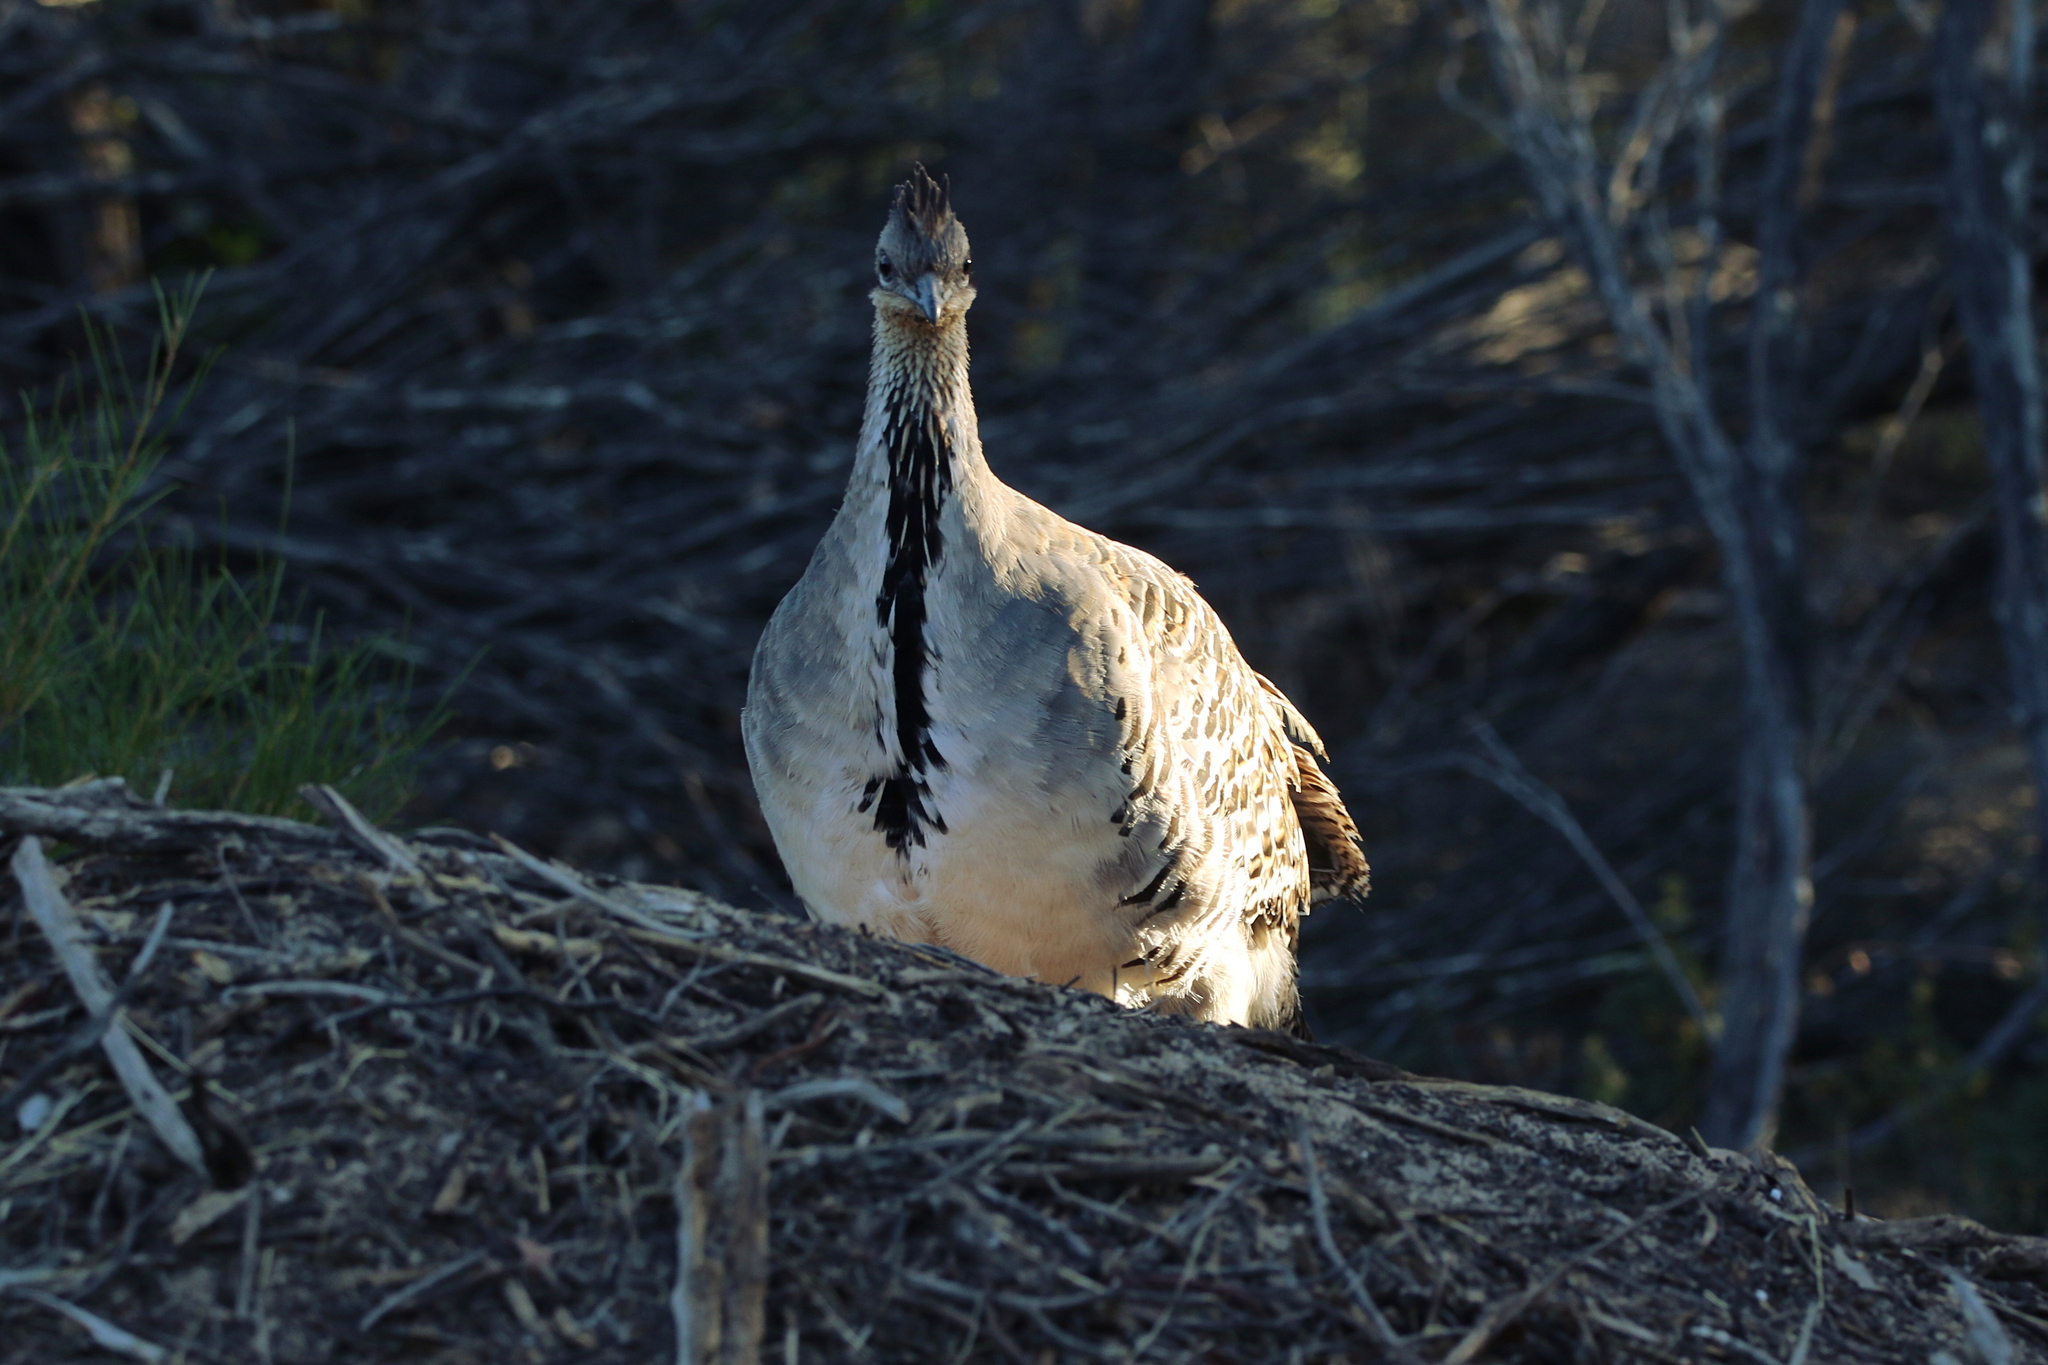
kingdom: Animalia
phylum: Chordata
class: Aves
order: Galliformes
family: Megapodiidae
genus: Leipoa
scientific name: Leipoa ocellata
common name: Malleefowl
